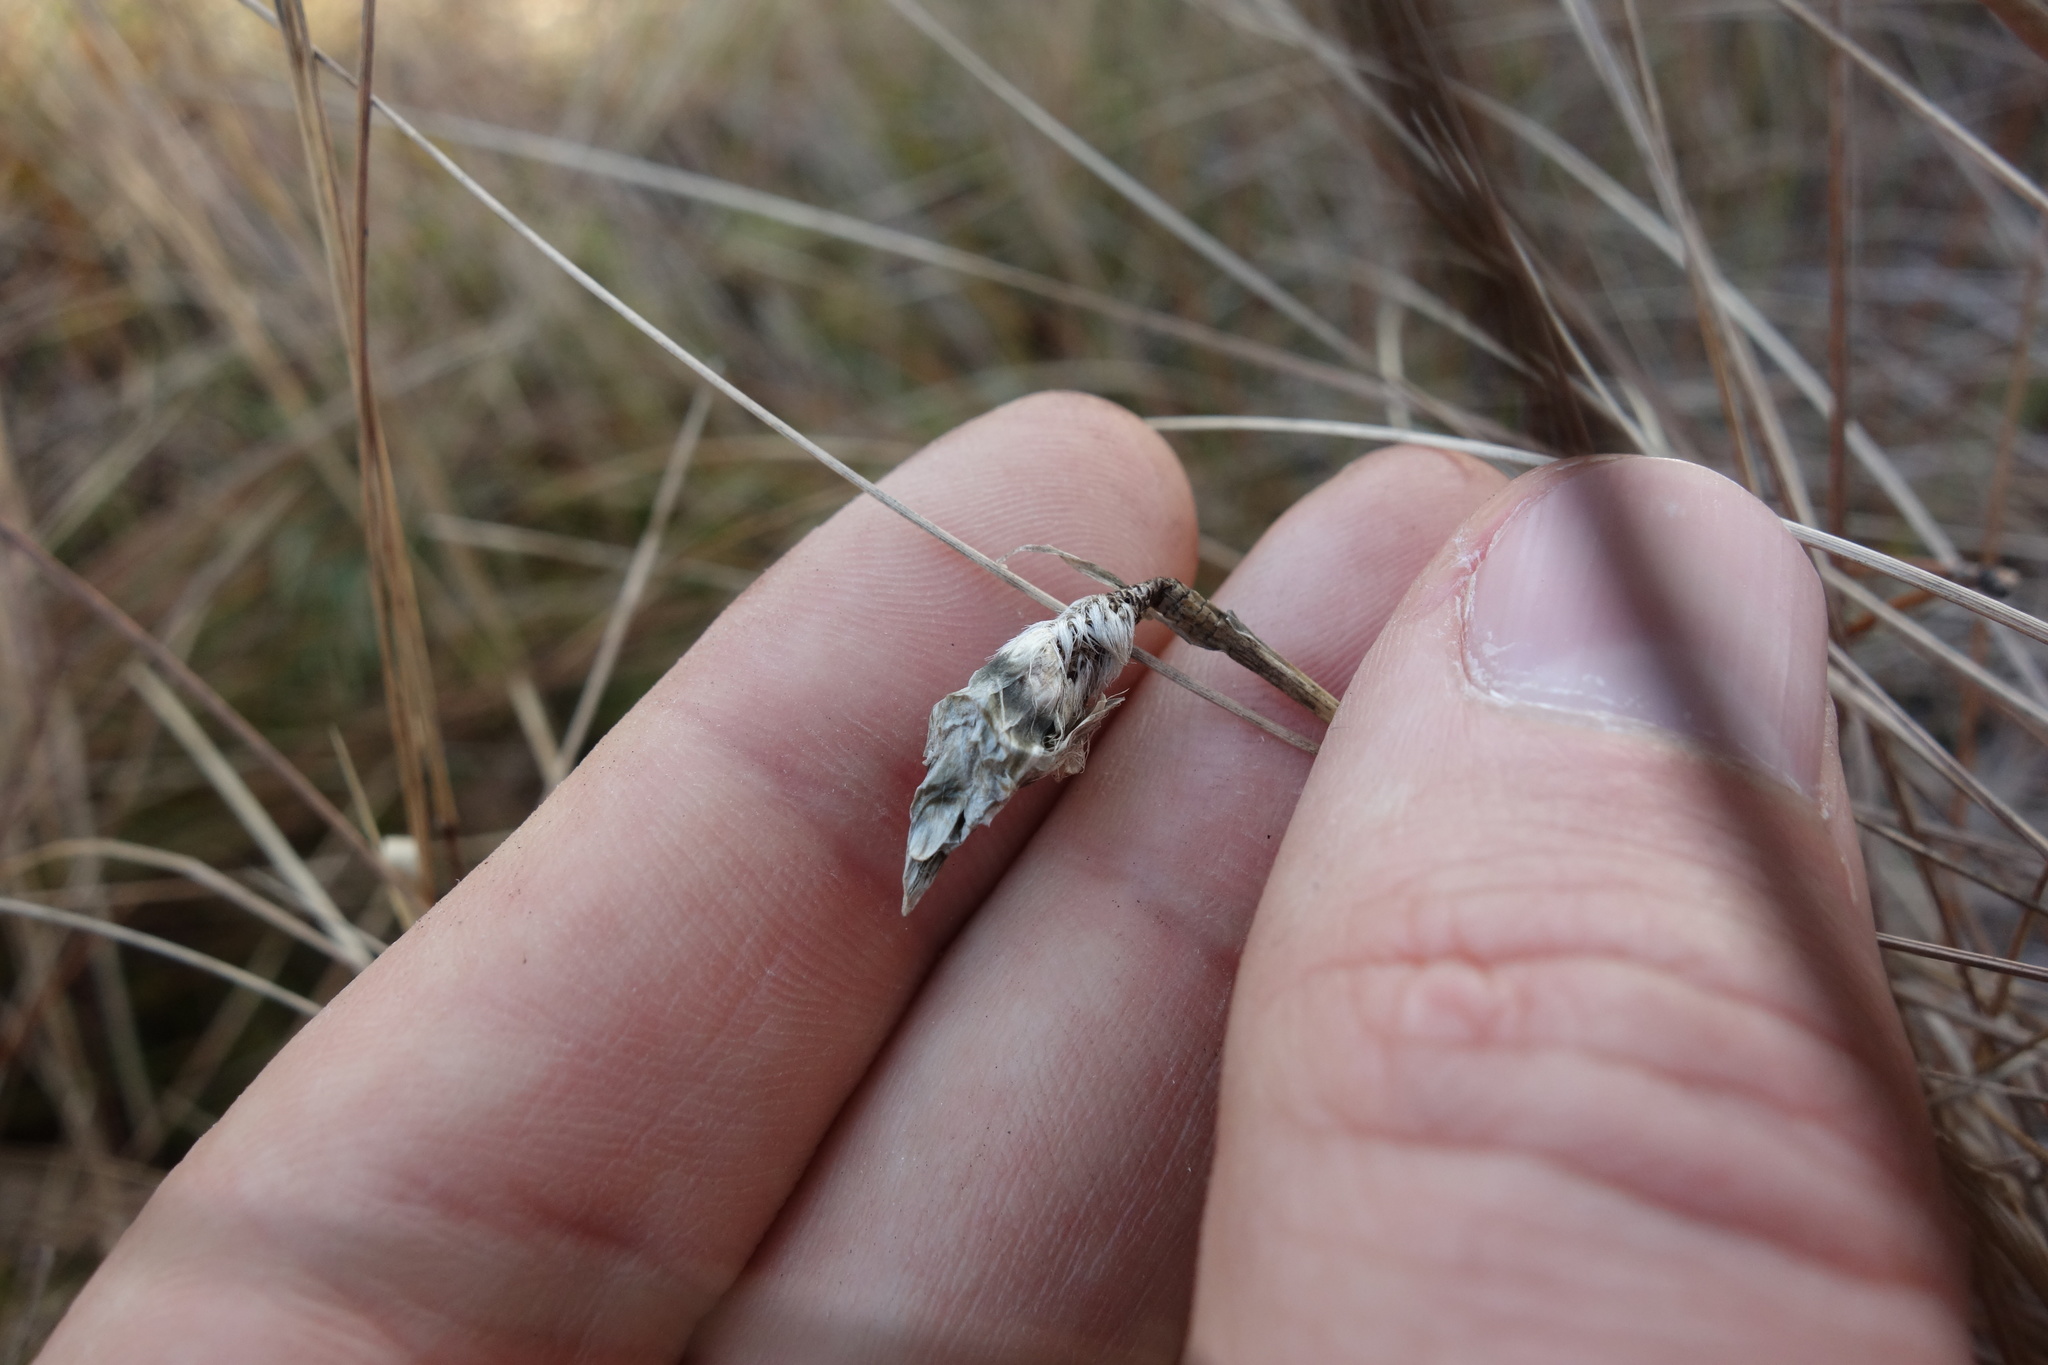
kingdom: Plantae
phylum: Tracheophyta
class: Liliopsida
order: Poales
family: Cyperaceae
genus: Eriophorum
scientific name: Eriophorum vaginatum
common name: Hare's-tail cottongrass
